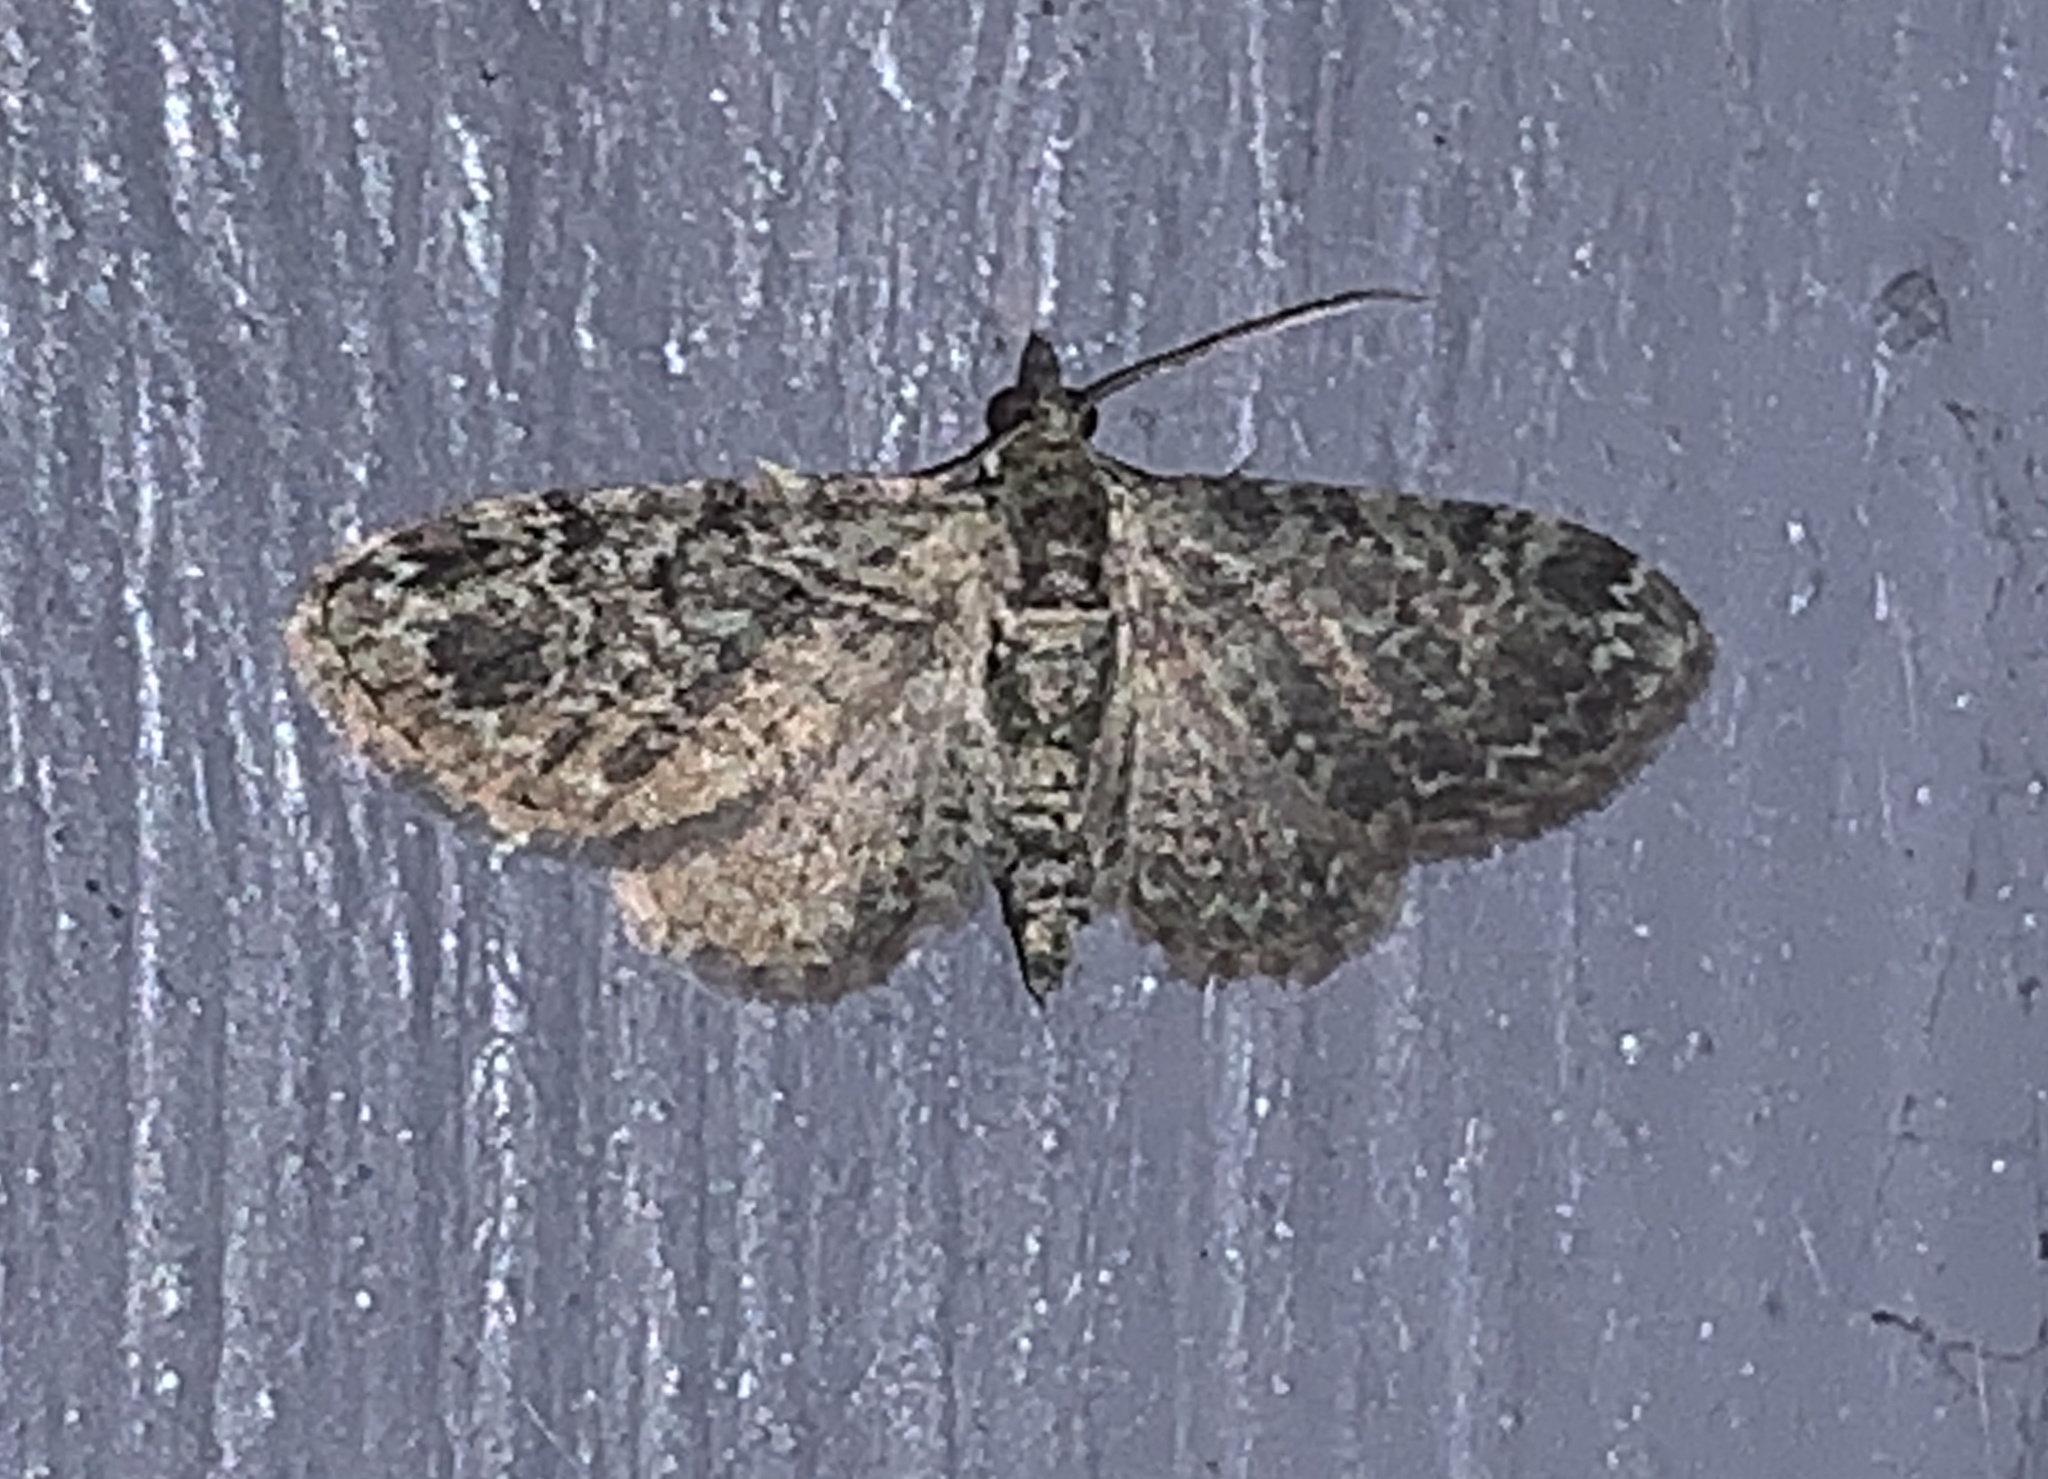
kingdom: Animalia
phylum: Arthropoda
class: Insecta
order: Lepidoptera
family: Geometridae
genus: Pasiphila
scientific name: Pasiphila rectangulata
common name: Green pug
